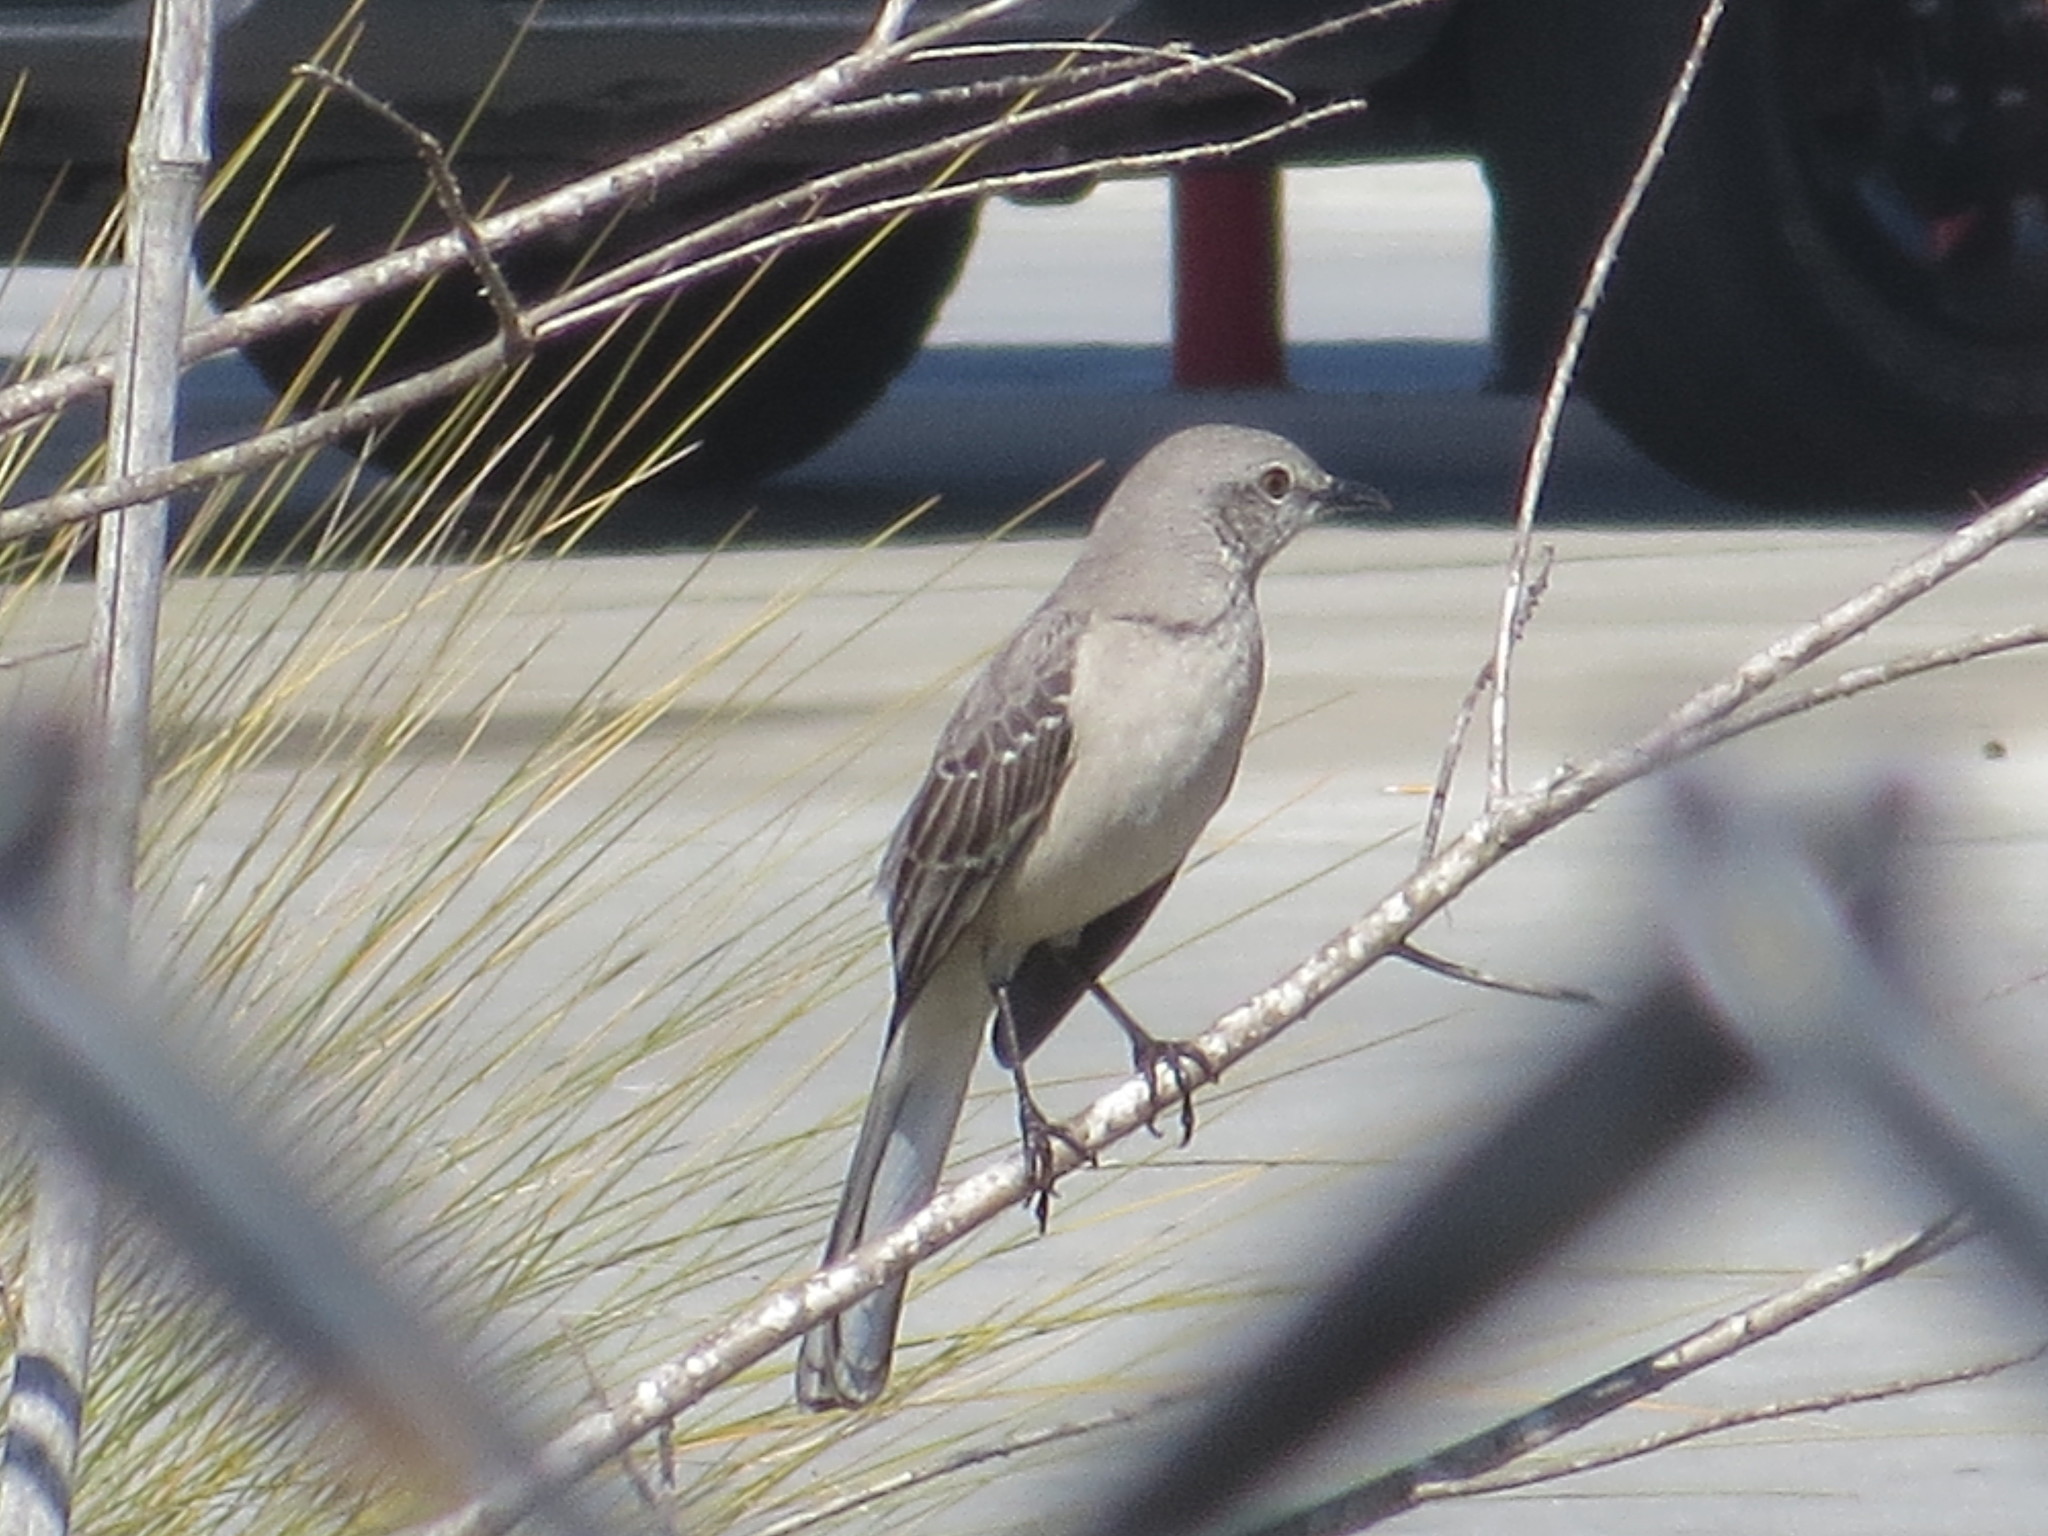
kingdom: Animalia
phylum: Chordata
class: Aves
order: Passeriformes
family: Mimidae
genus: Mimus
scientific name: Mimus polyglottos
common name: Northern mockingbird
